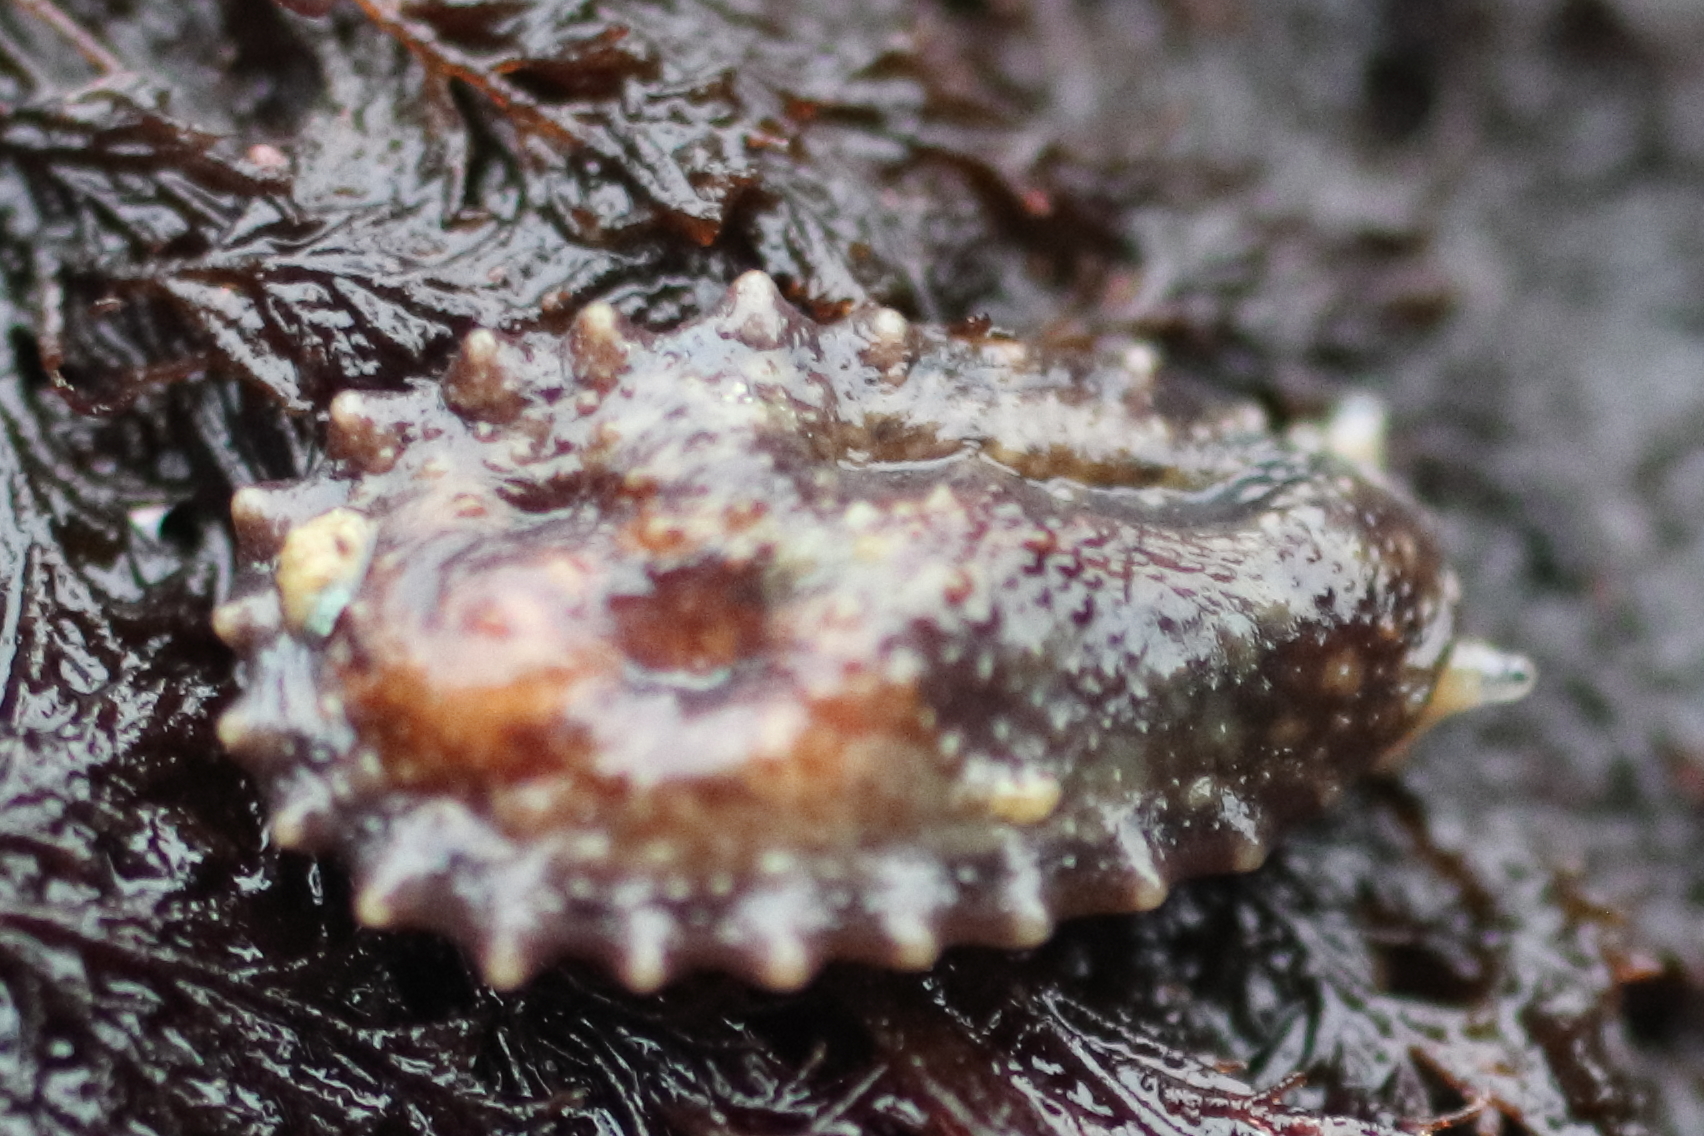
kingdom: Animalia
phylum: Mollusca
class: Gastropoda
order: Systellommatophora
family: Onchidiidae
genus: Onchidella
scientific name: Onchidella carpenteri
